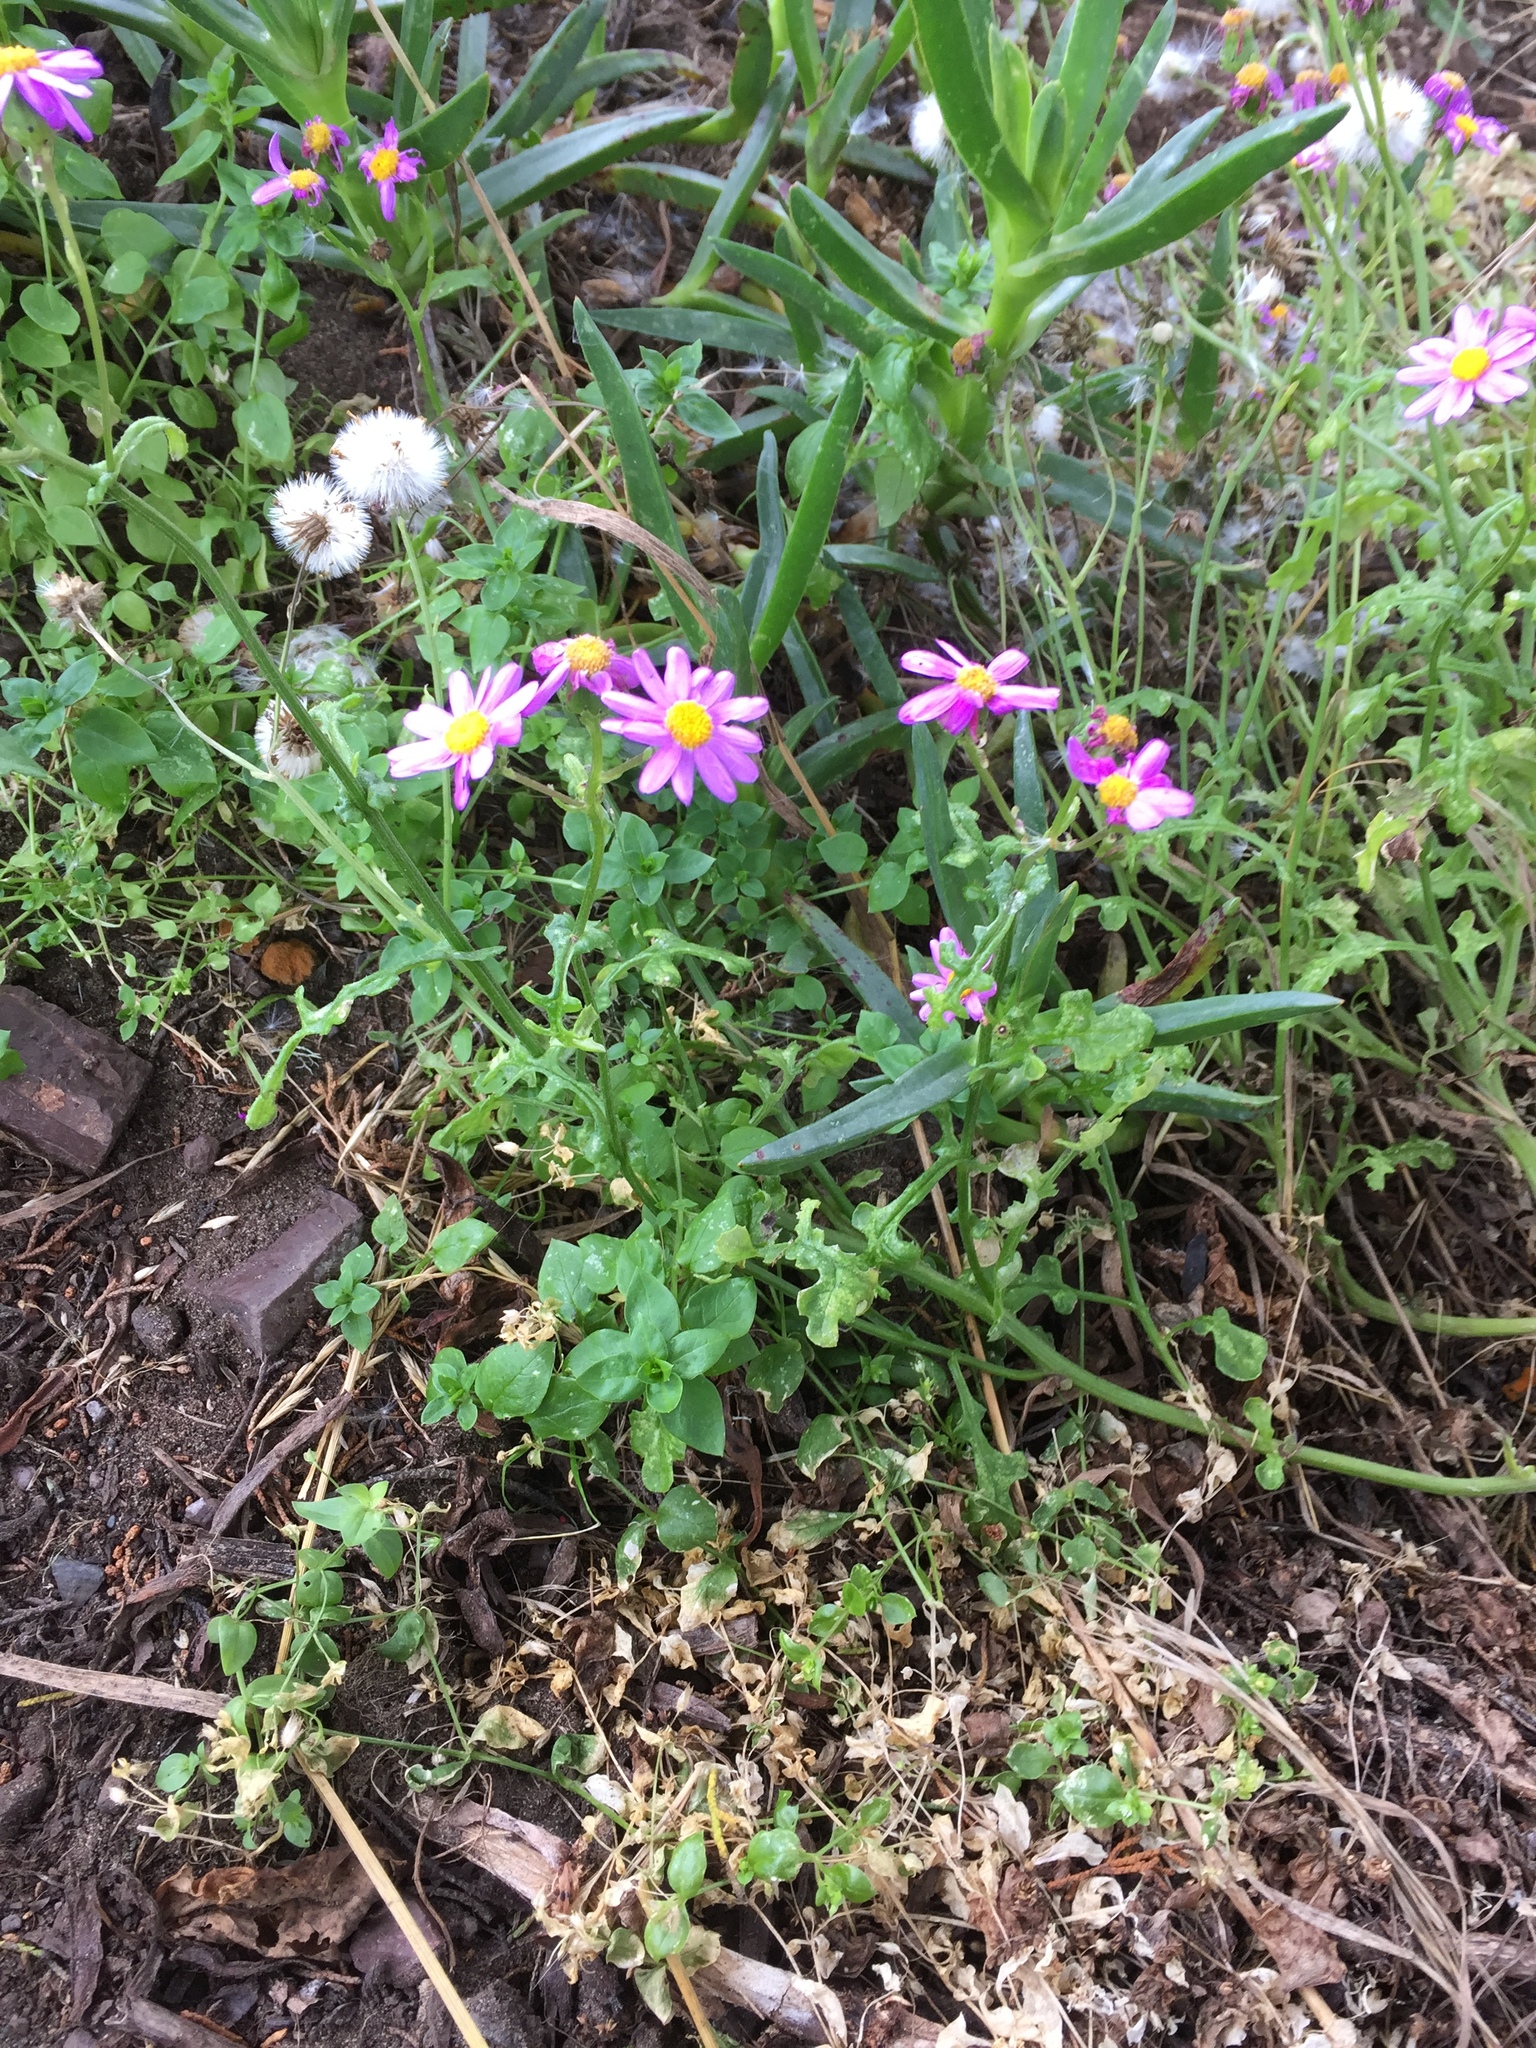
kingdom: Plantae
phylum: Tracheophyta
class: Magnoliopsida
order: Asterales
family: Asteraceae
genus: Senecio
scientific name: Senecio elegans
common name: Purple groundsel
